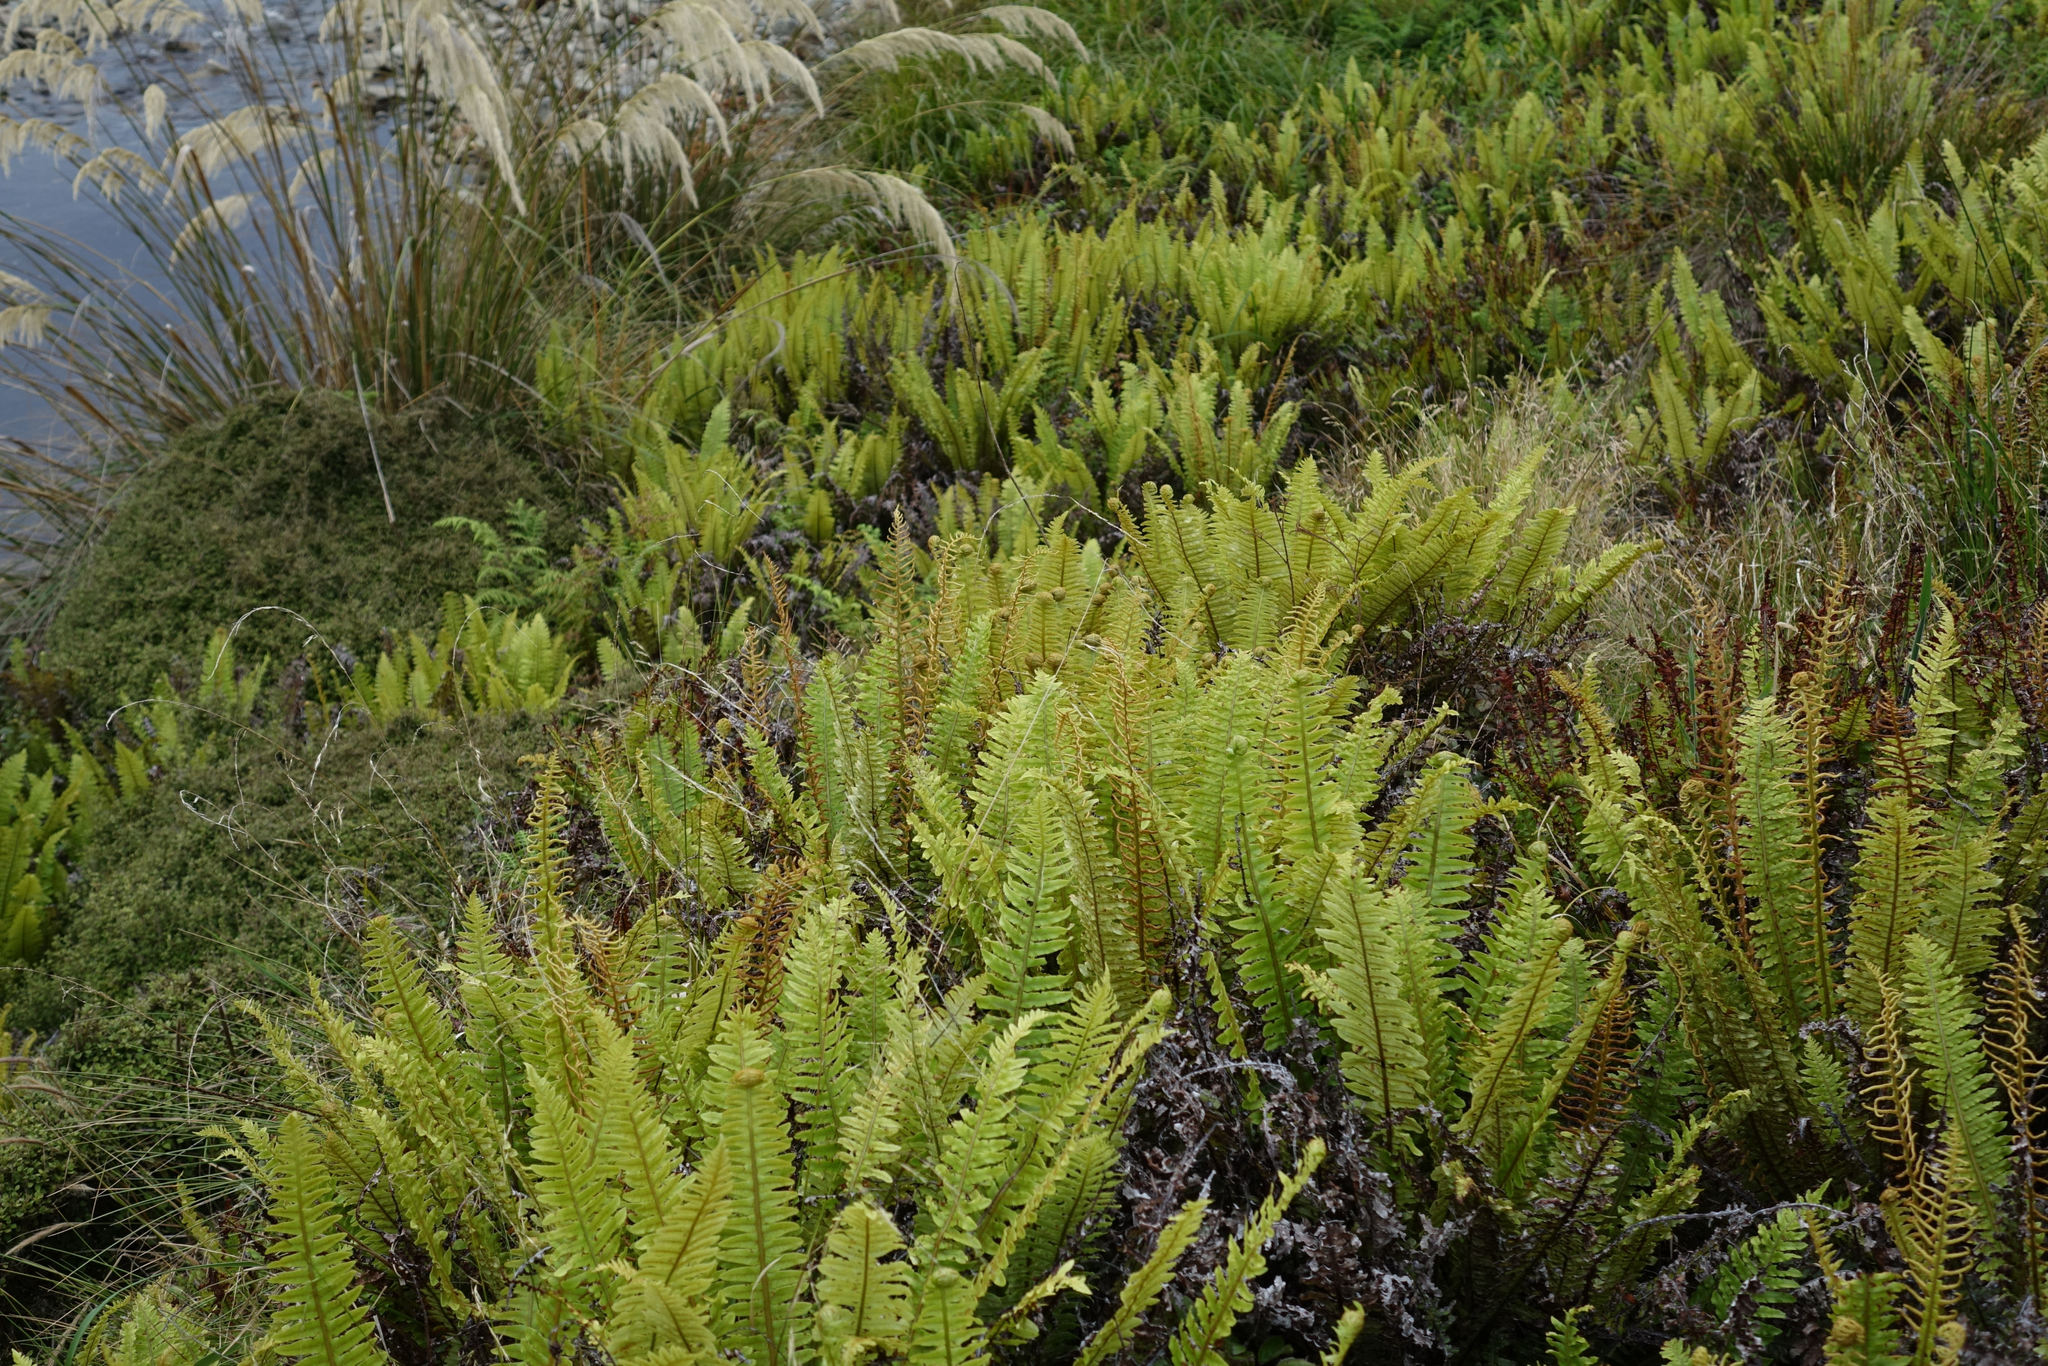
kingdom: Plantae
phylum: Tracheophyta
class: Polypodiopsida
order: Polypodiales
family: Blechnaceae
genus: Lomaria
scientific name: Lomaria discolor
